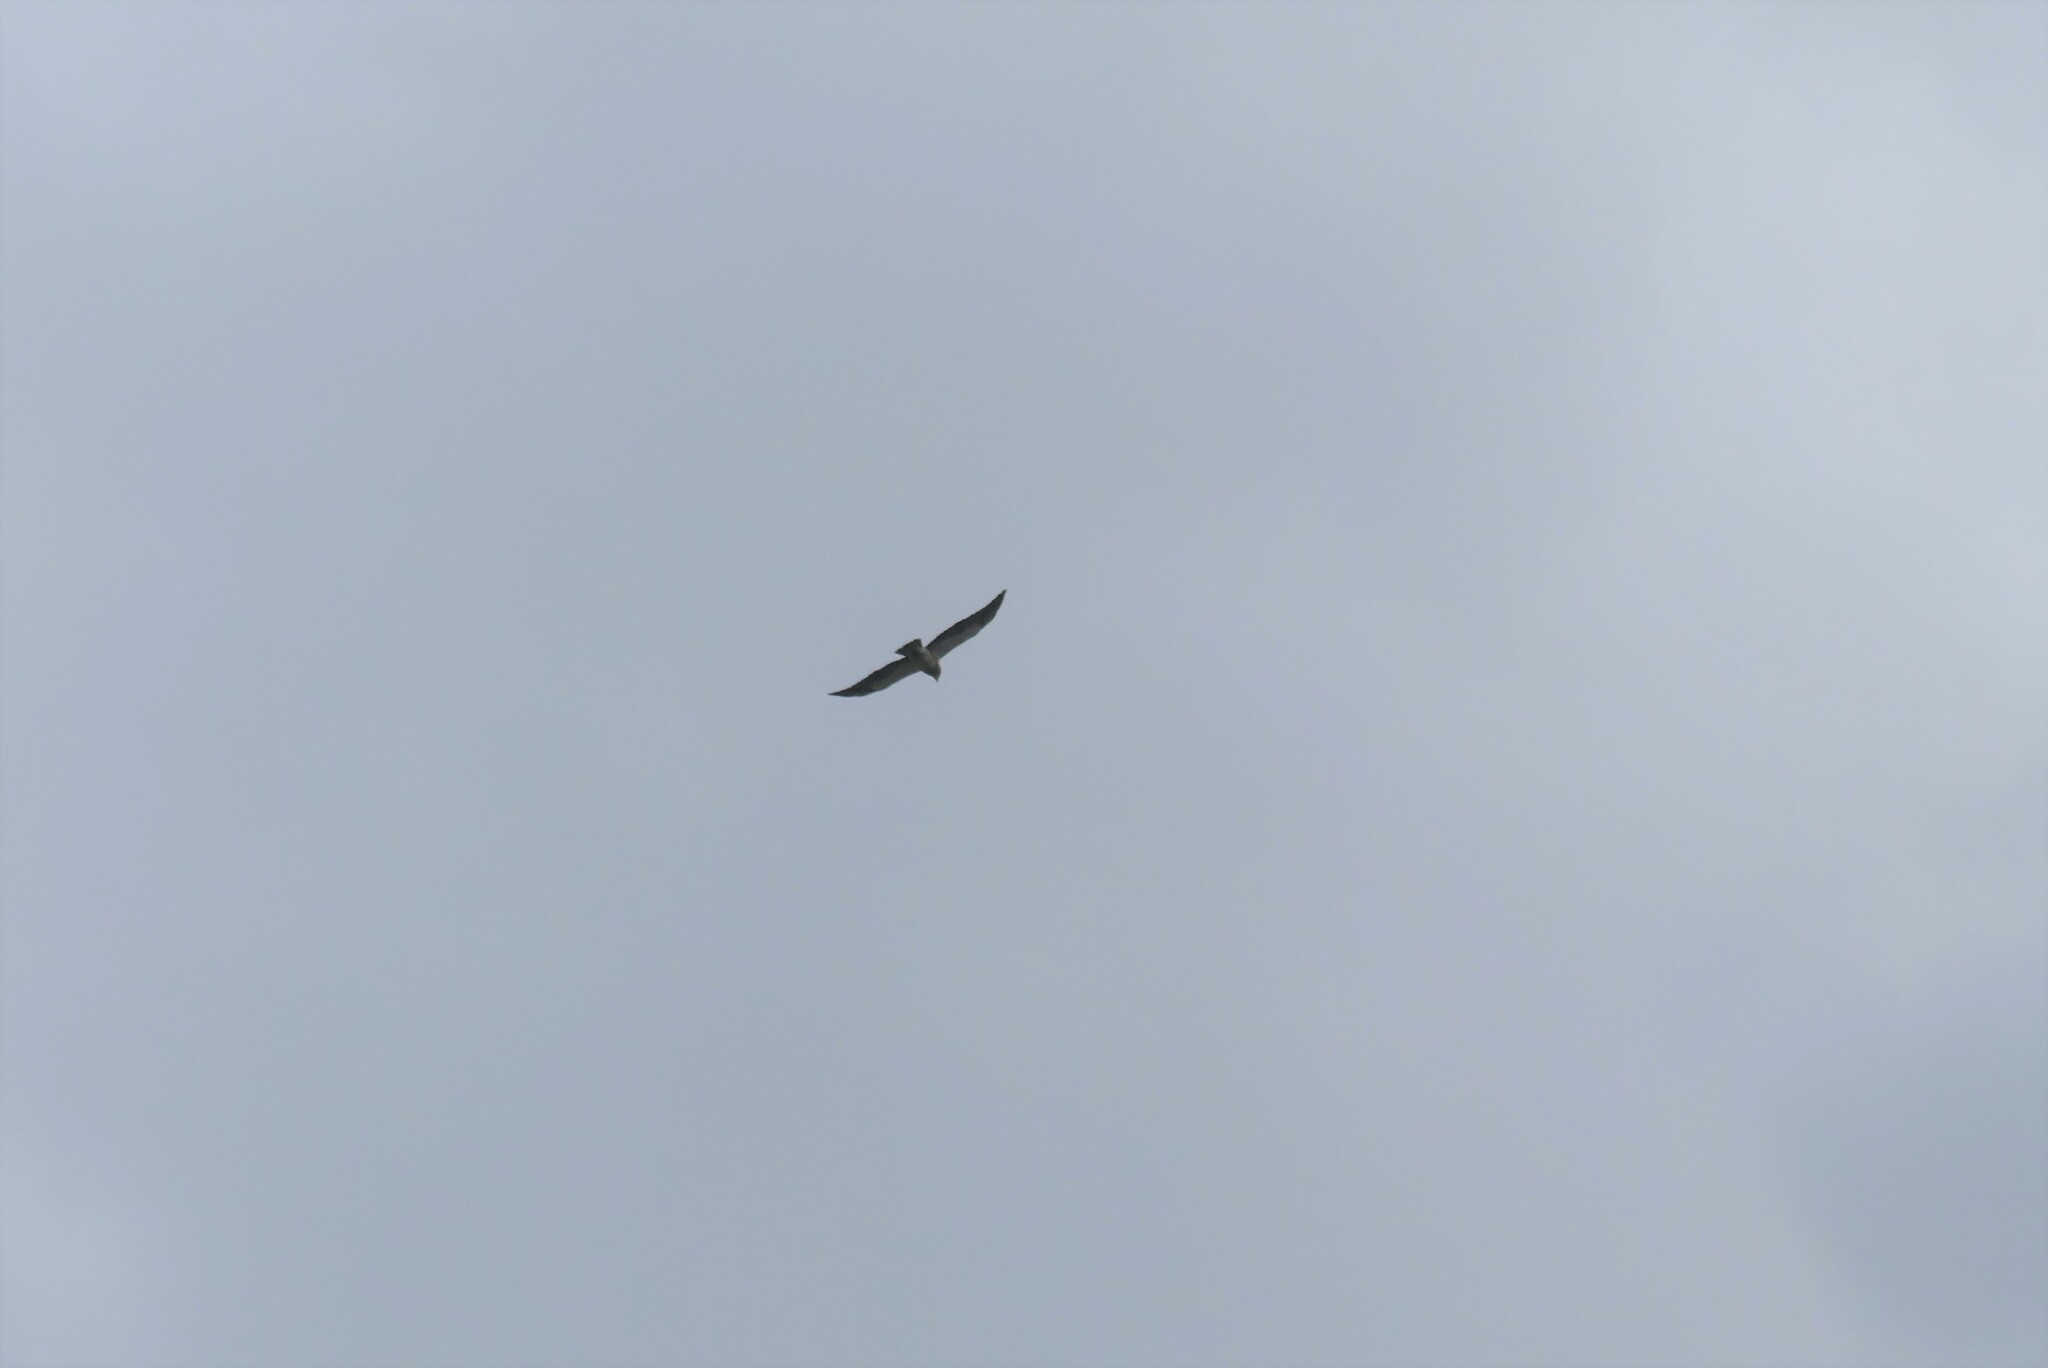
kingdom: Animalia
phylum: Chordata
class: Aves
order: Accipitriformes
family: Accipitridae
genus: Buteo
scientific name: Buteo swainsoni
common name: Swainson's hawk
